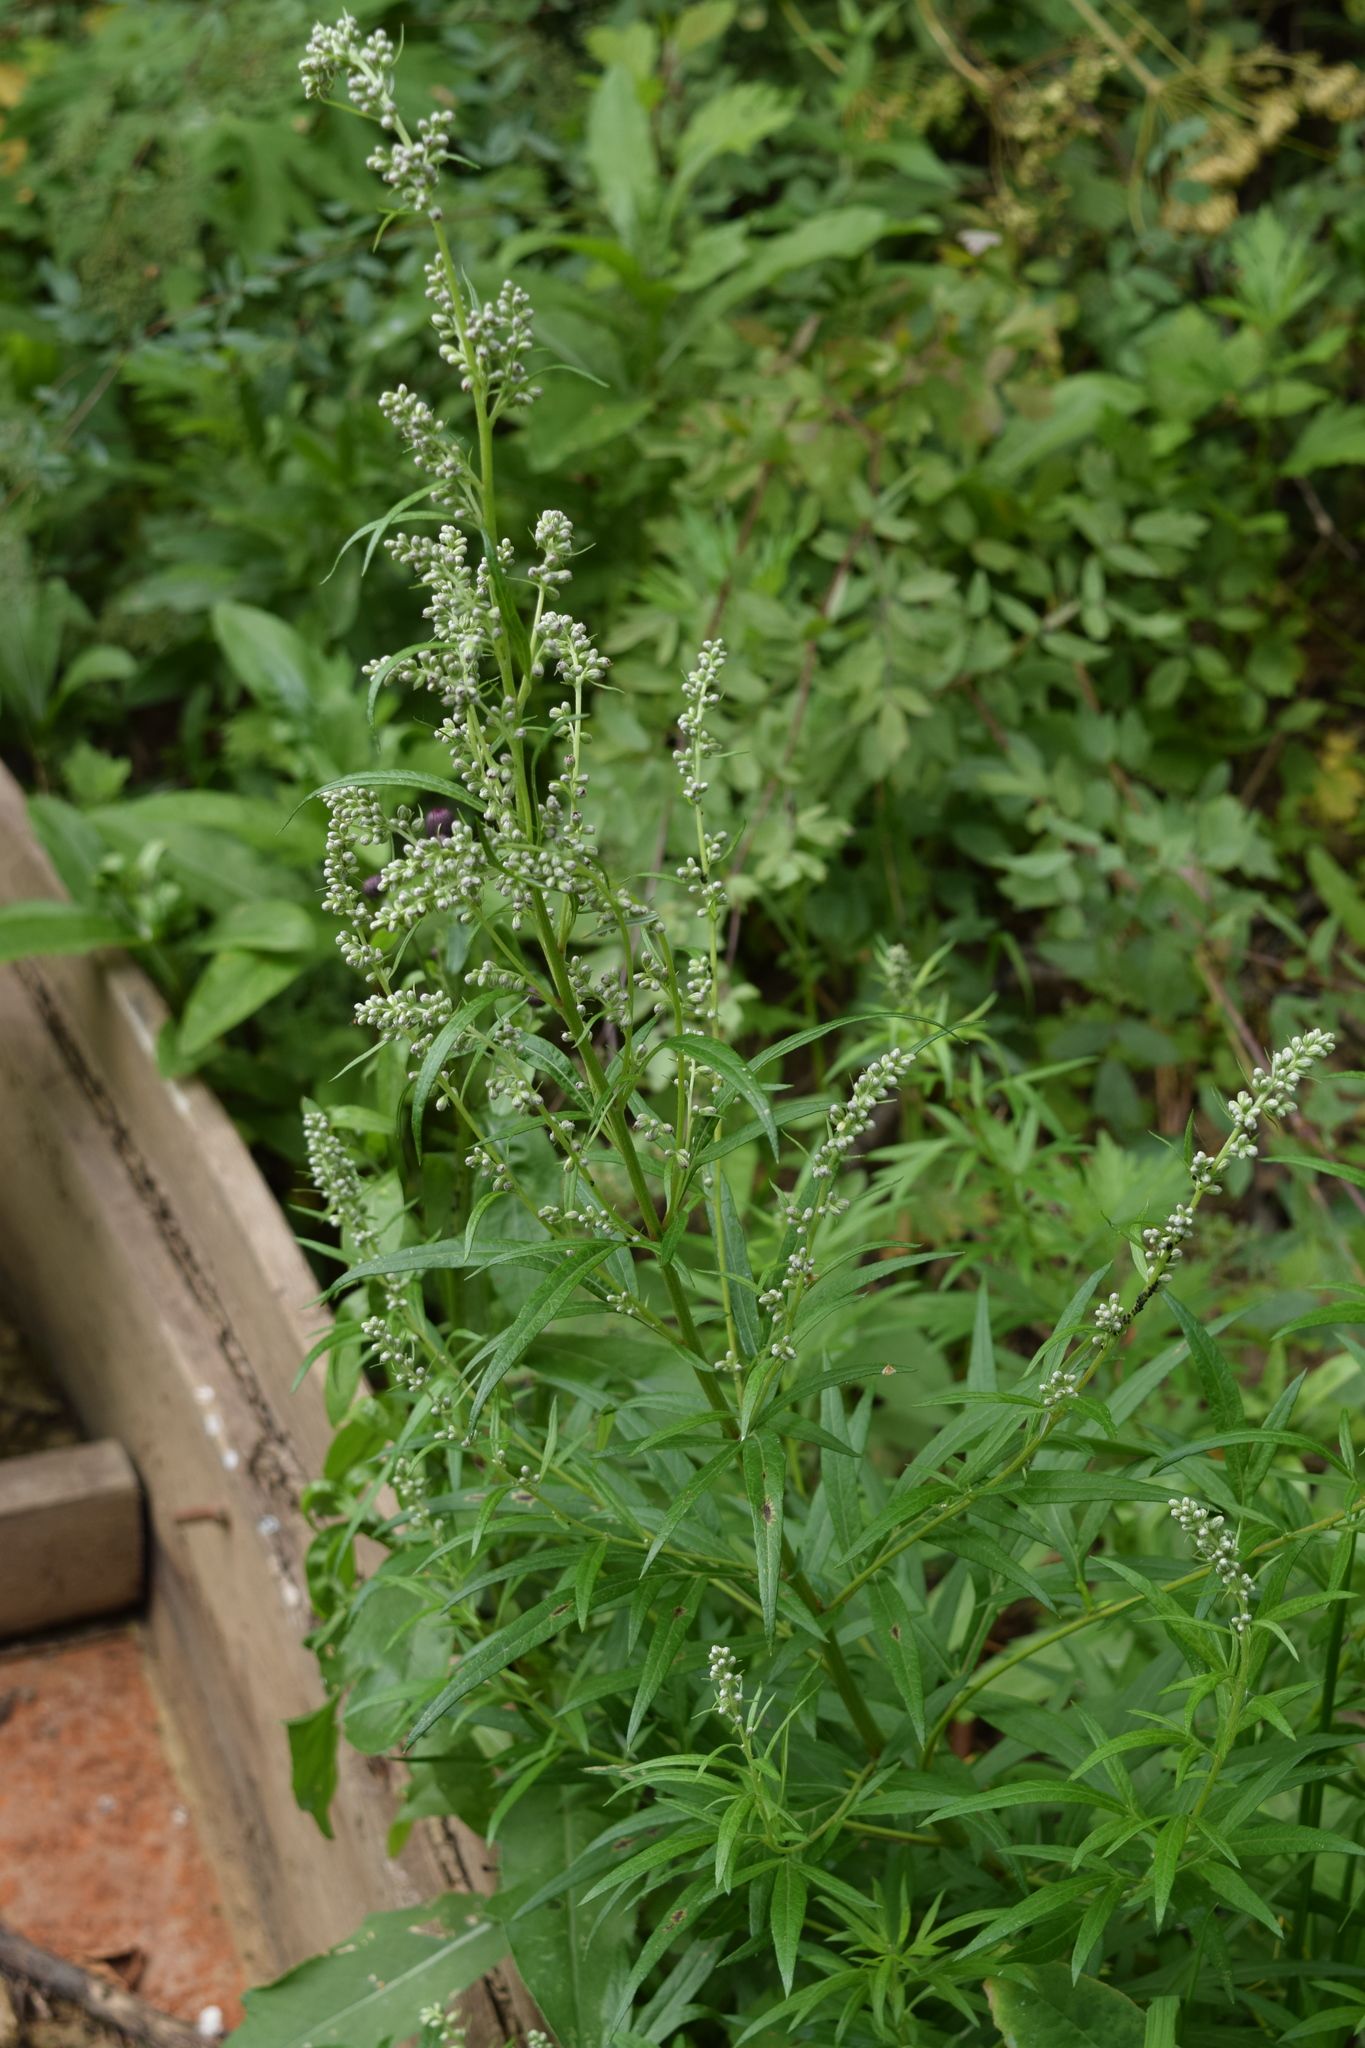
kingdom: Plantae
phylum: Tracheophyta
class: Magnoliopsida
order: Asterales
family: Asteraceae
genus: Artemisia
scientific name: Artemisia vulgaris
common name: Mugwort
